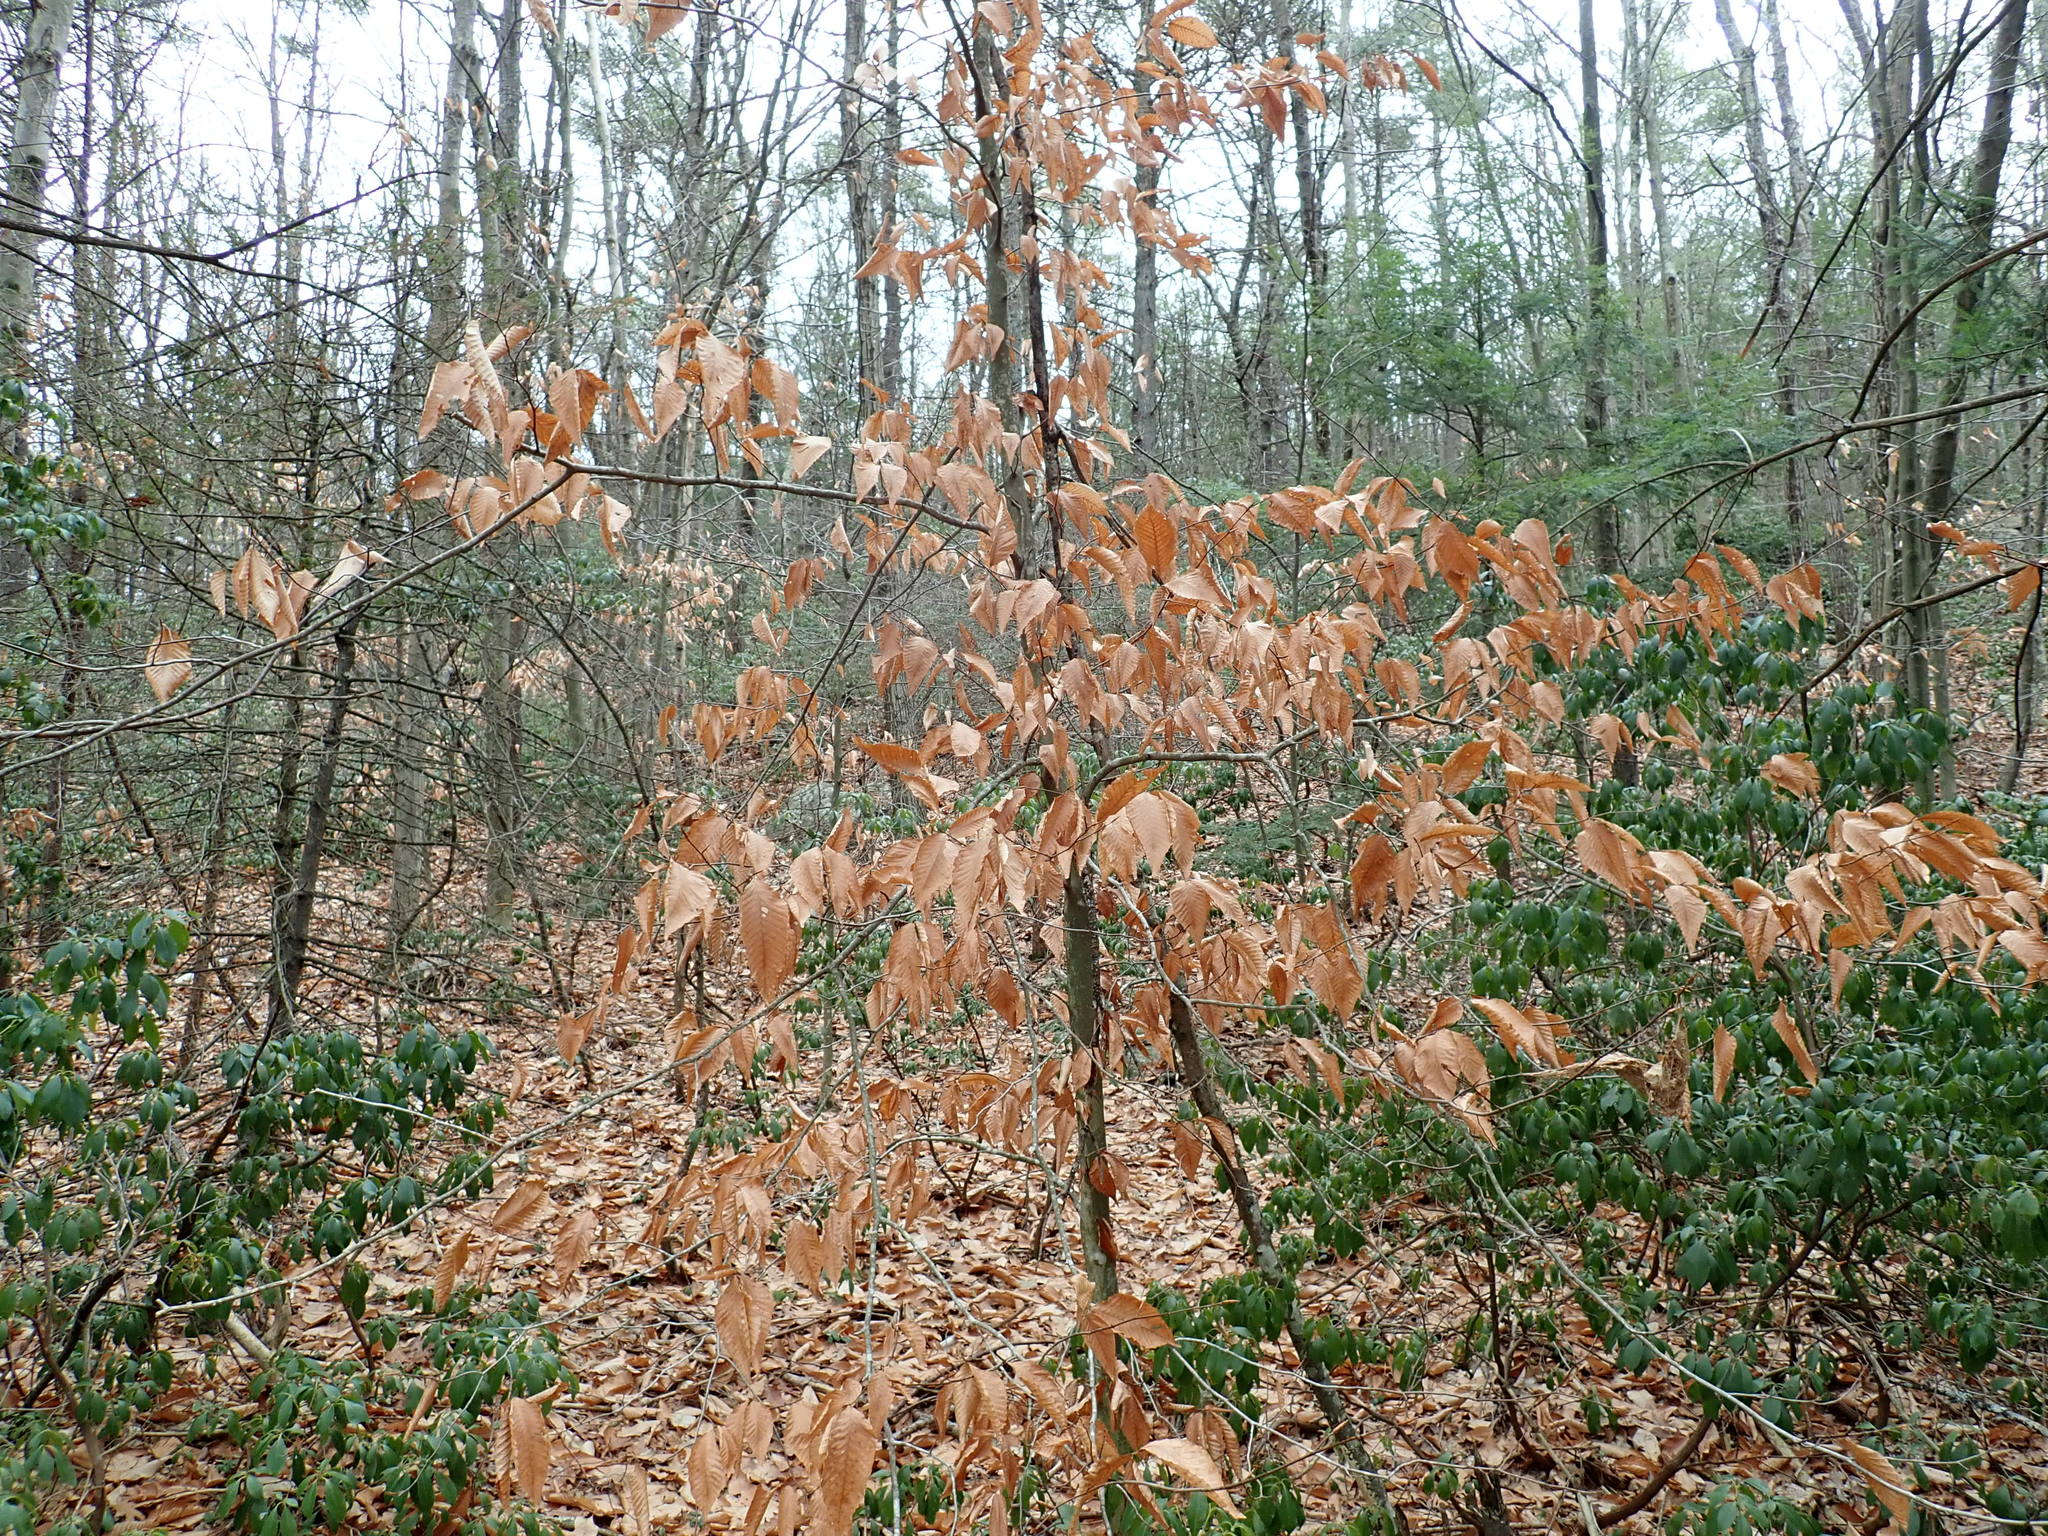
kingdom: Plantae
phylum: Tracheophyta
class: Magnoliopsida
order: Fagales
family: Fagaceae
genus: Fagus
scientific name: Fagus grandifolia
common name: American beech
